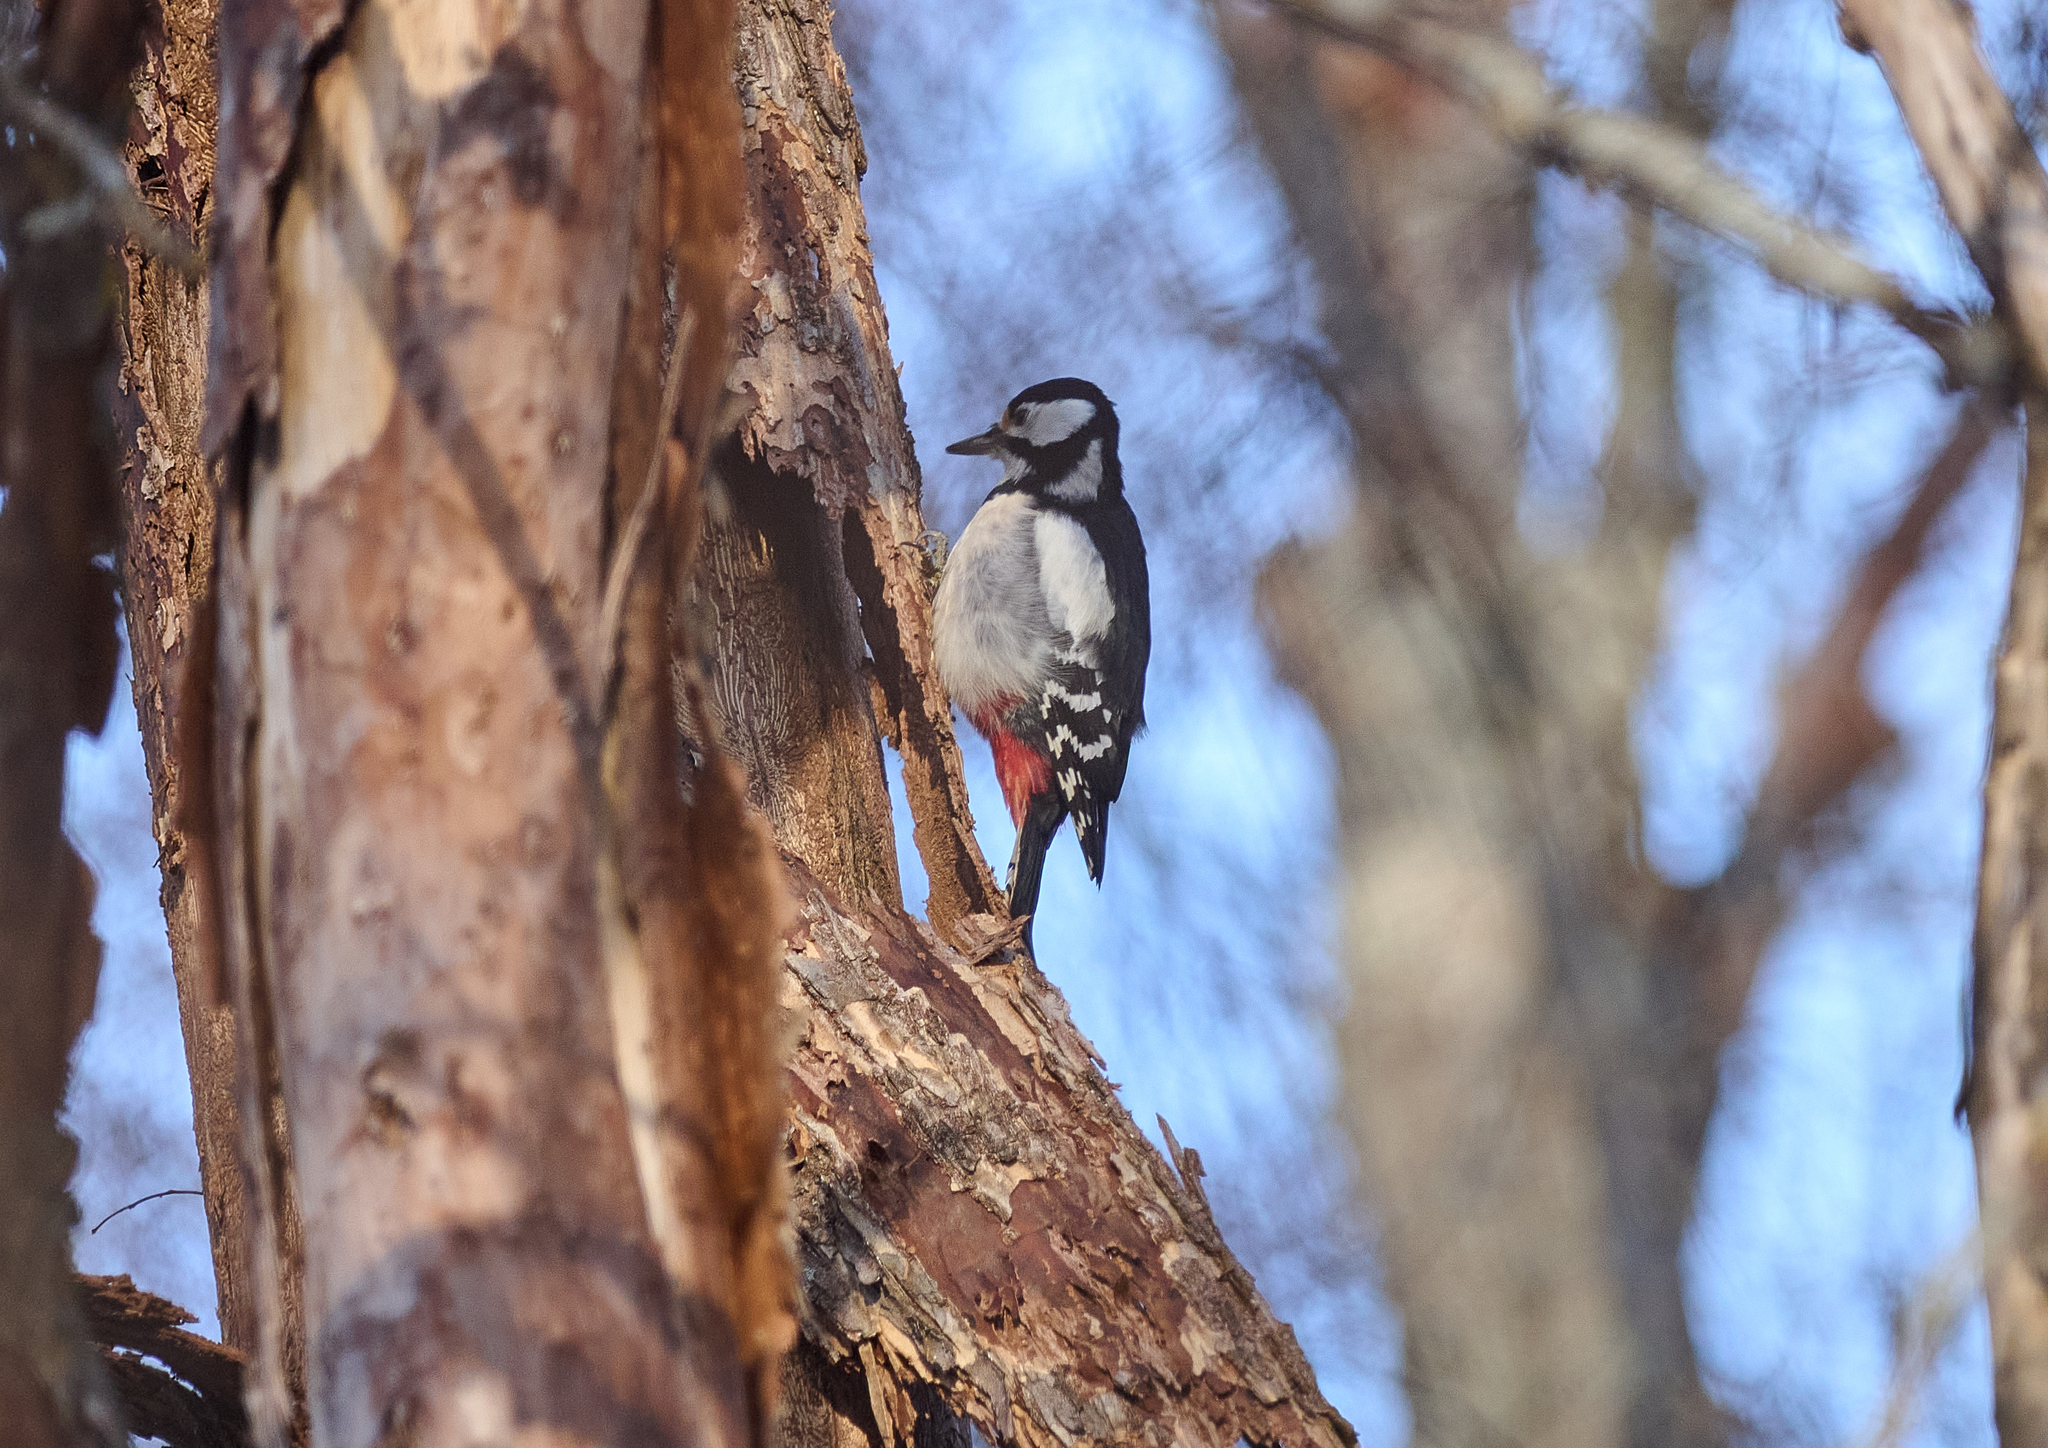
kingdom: Animalia
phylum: Chordata
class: Aves
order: Piciformes
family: Picidae
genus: Dendrocopos
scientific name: Dendrocopos major
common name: Great spotted woodpecker
